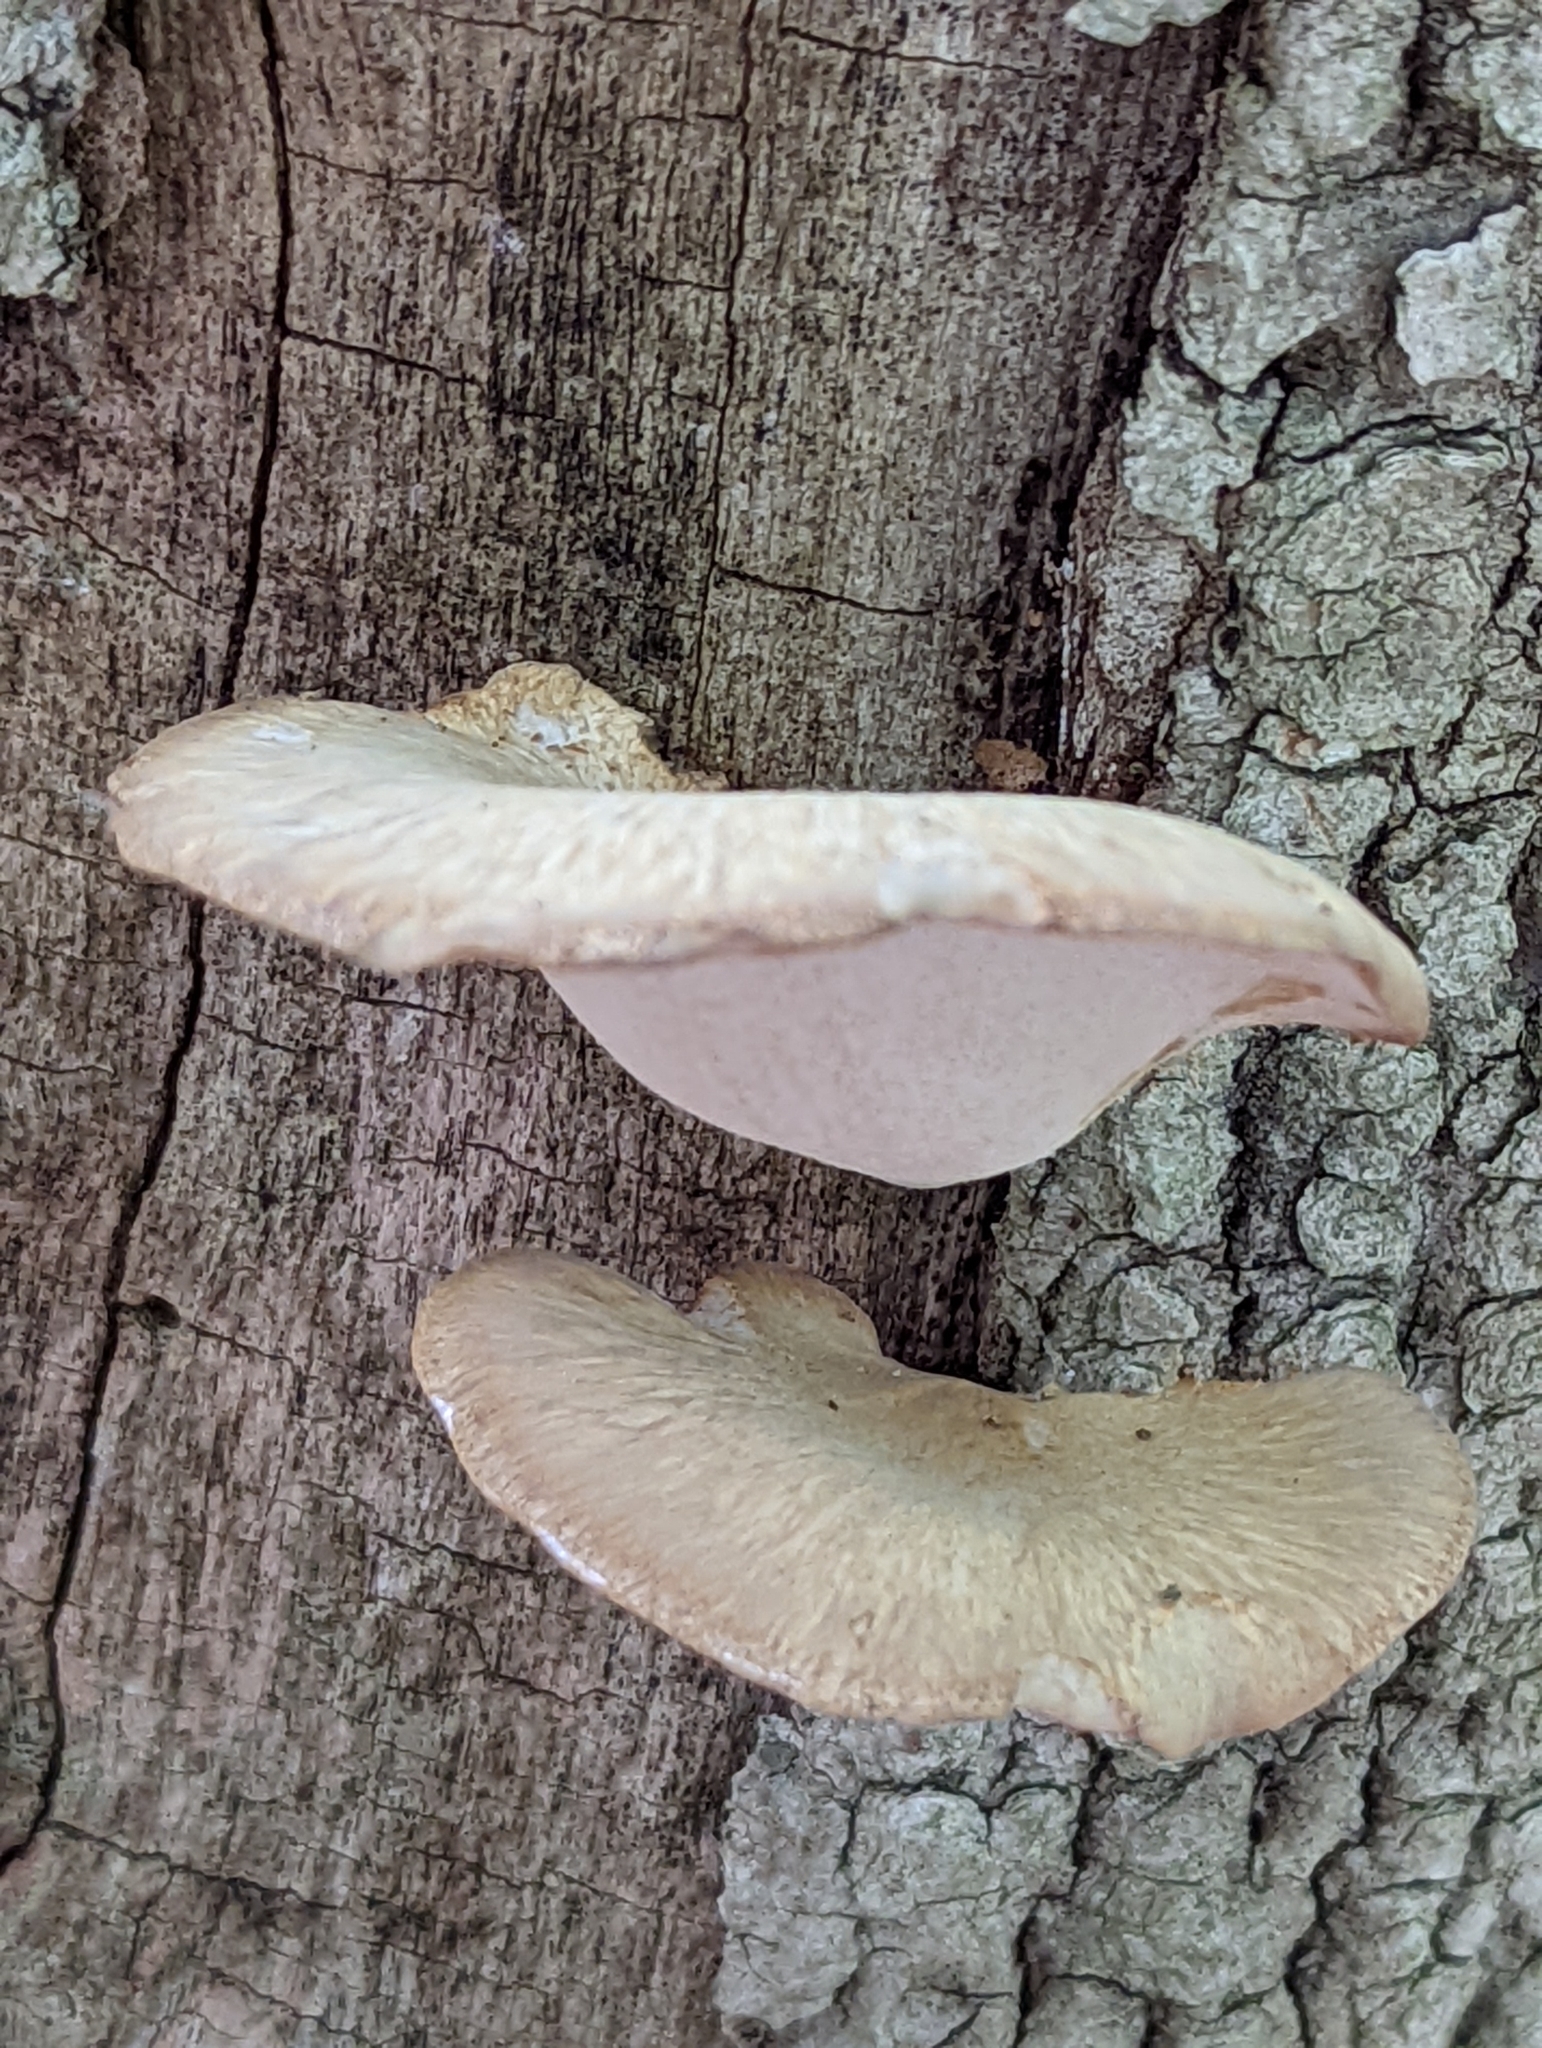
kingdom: Fungi
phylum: Basidiomycota
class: Agaricomycetes
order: Polyporales
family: Polyporaceae
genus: Cerioporus
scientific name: Cerioporus varius
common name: Elegant polypore
